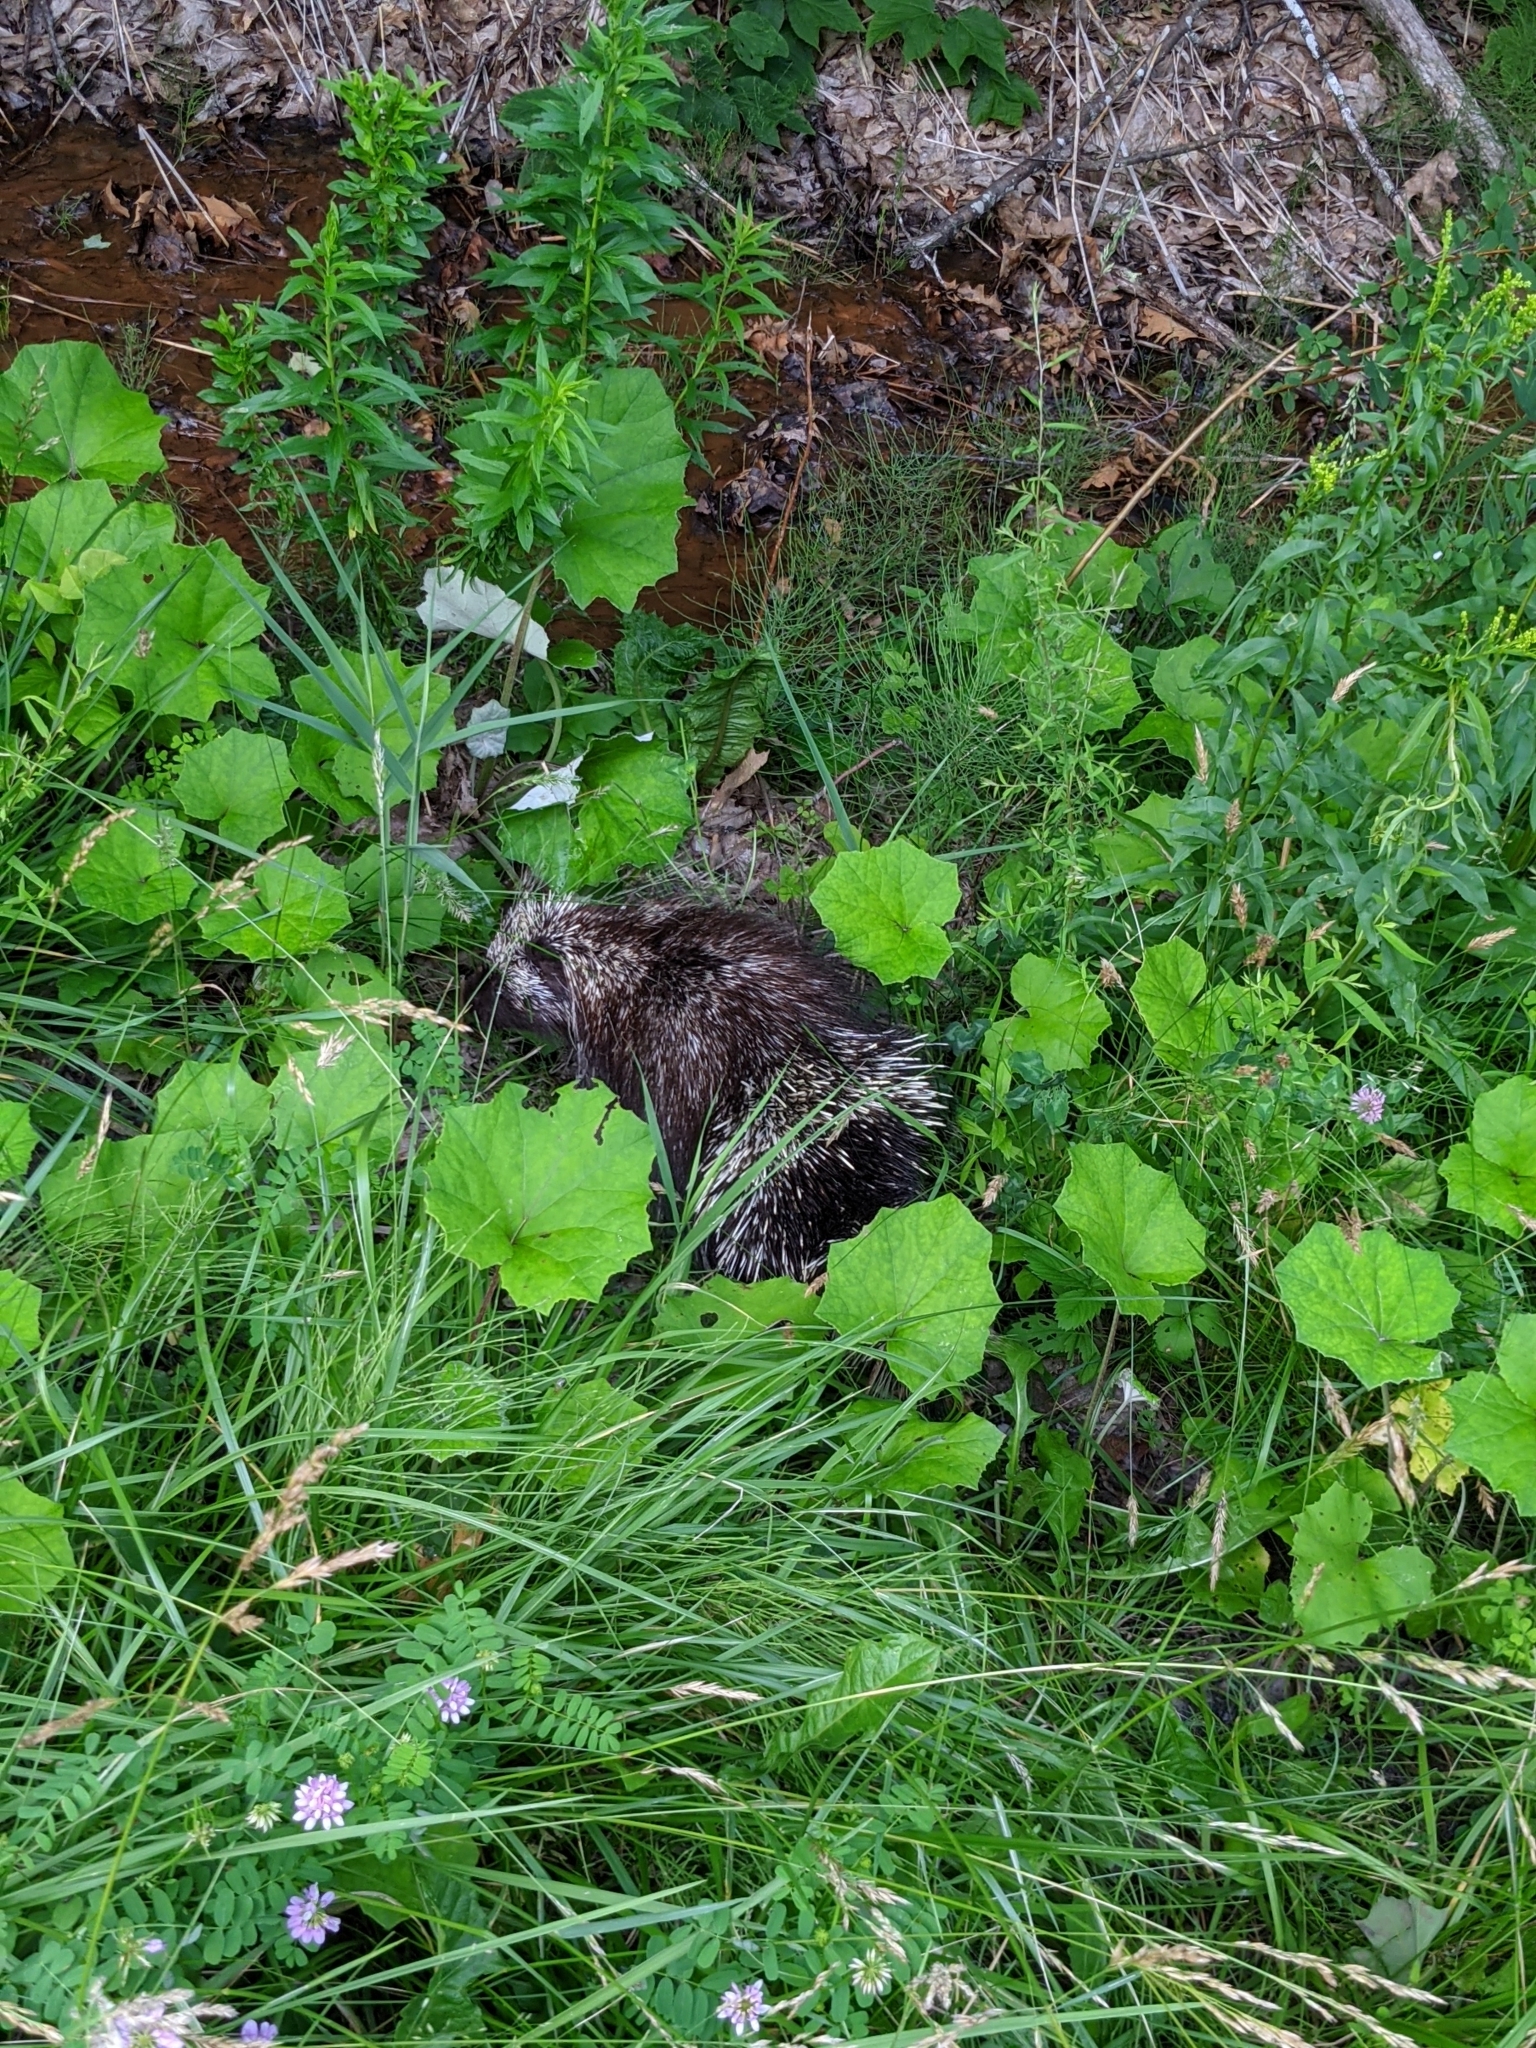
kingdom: Animalia
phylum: Chordata
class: Mammalia
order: Rodentia
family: Erethizontidae
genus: Erethizon
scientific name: Erethizon dorsatus
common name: North american porcupine
